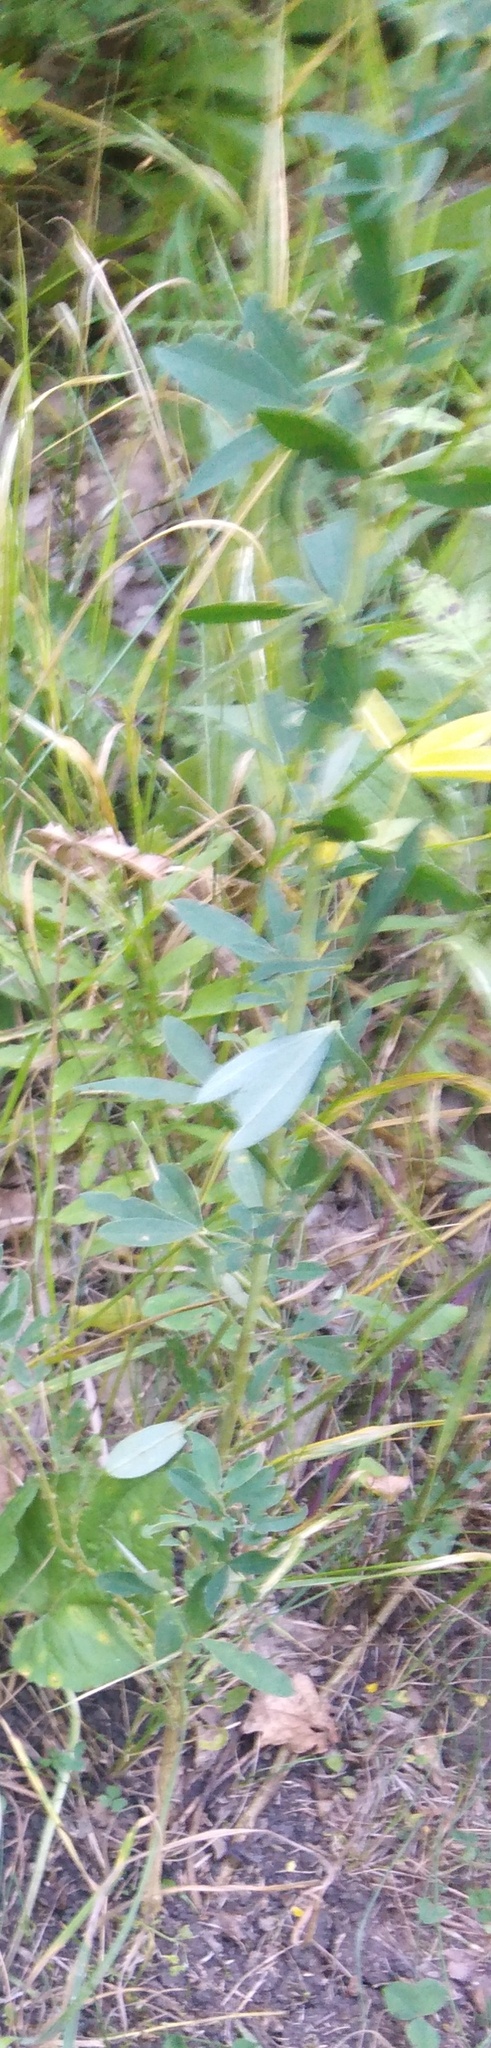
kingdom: Plantae
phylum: Tracheophyta
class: Magnoliopsida
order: Fabales
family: Fabaceae
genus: Chamaecytisus
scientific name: Chamaecytisus ruthenicus
